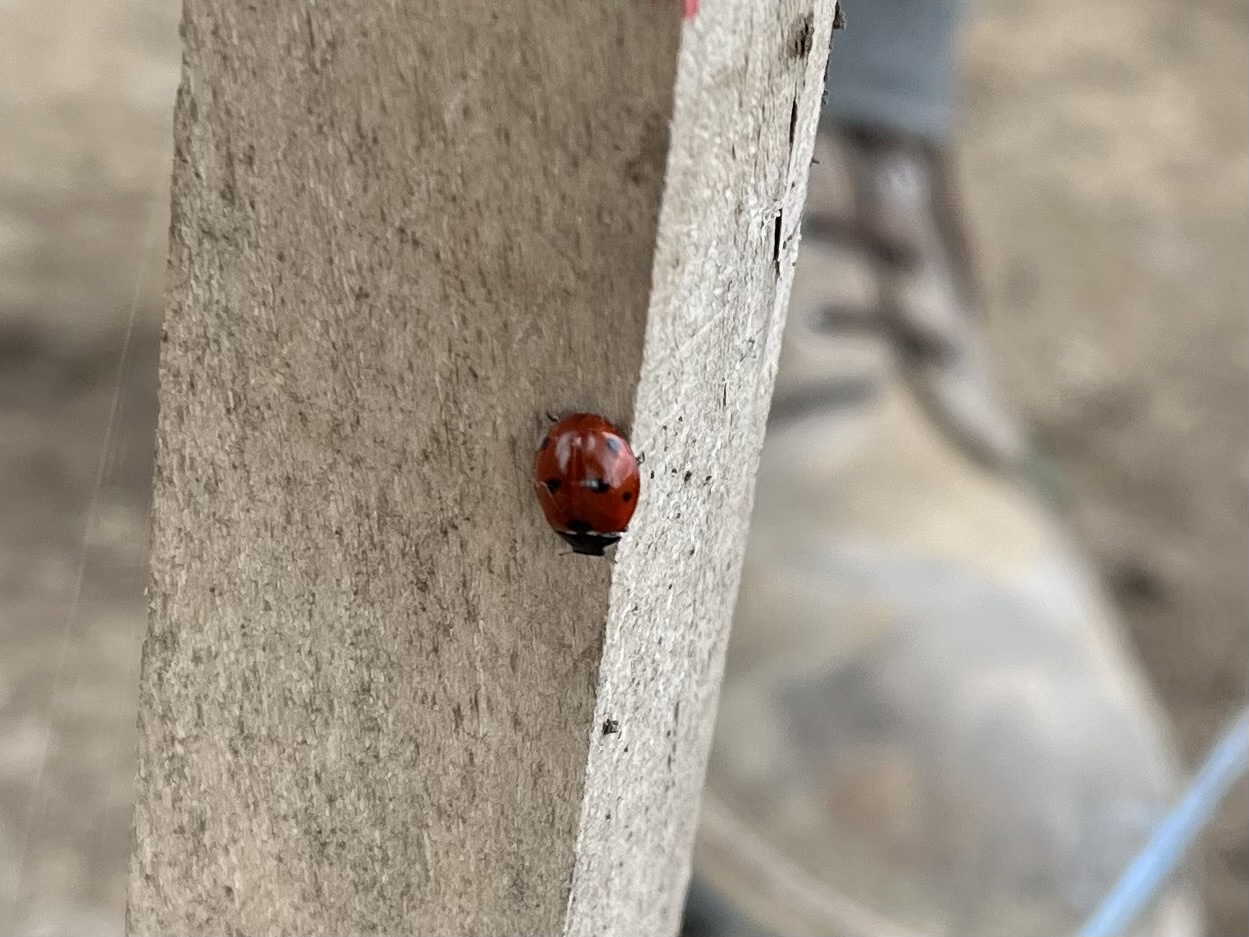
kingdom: Animalia
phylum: Arthropoda
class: Insecta
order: Coleoptera
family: Coccinellidae
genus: Coccinella
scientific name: Coccinella septempunctata
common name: Sevenspotted lady beetle
